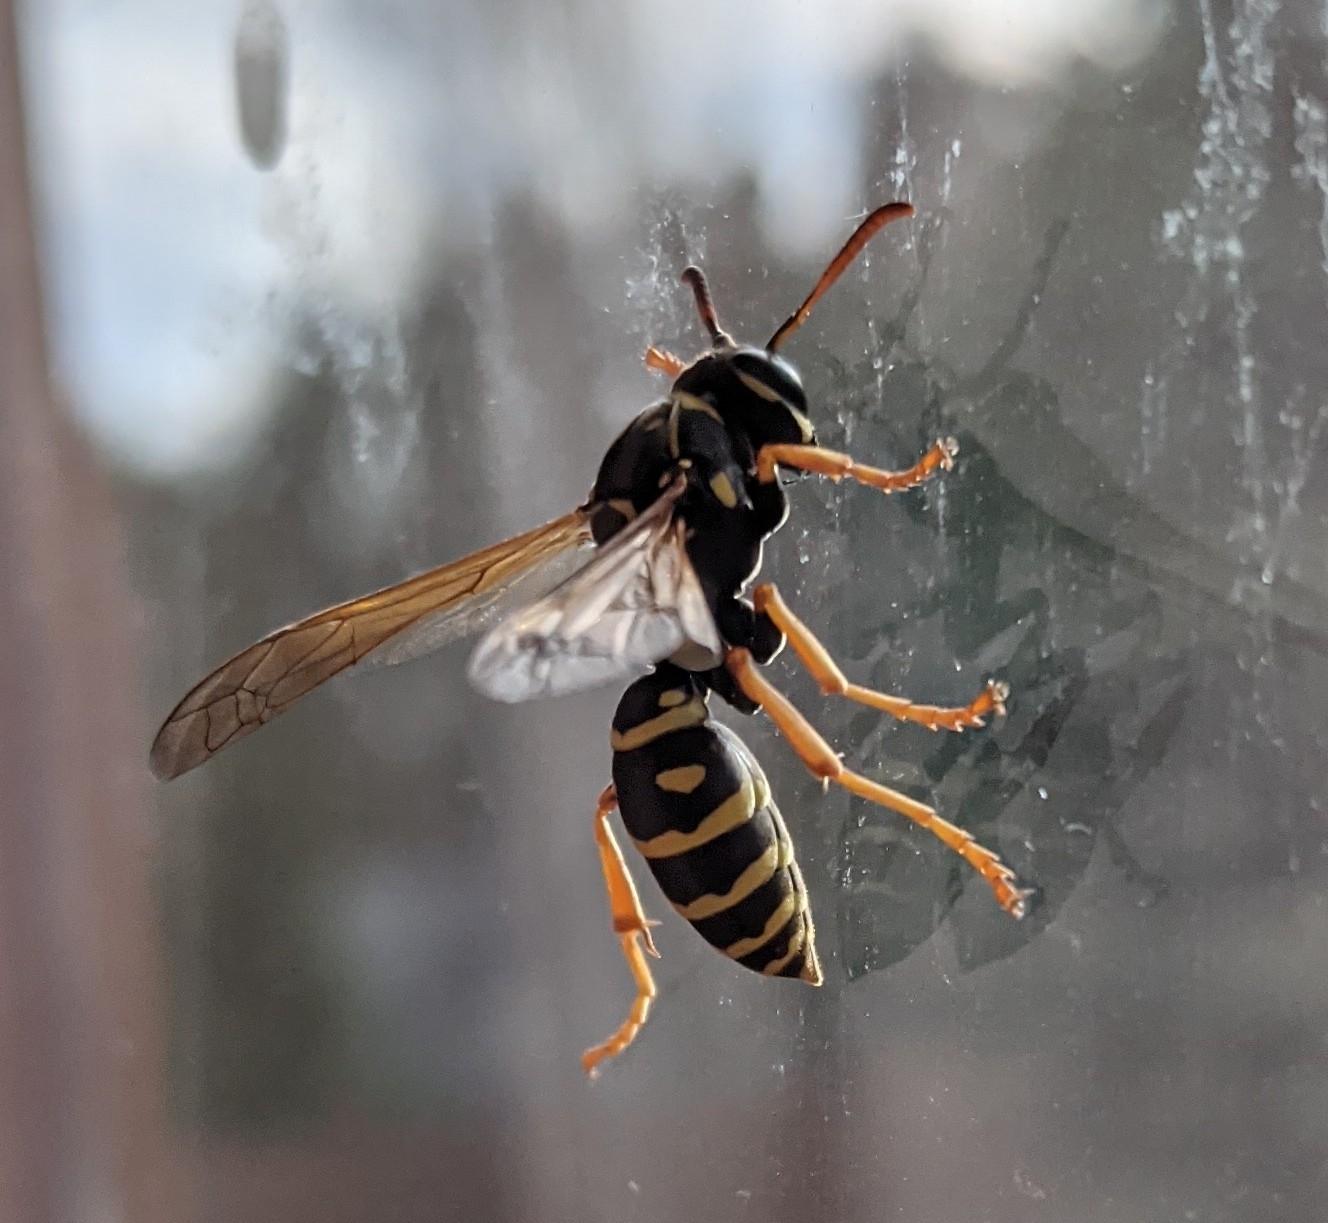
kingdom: Animalia
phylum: Arthropoda
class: Insecta
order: Hymenoptera
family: Eumenidae
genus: Polistes
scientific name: Polistes nimpha
